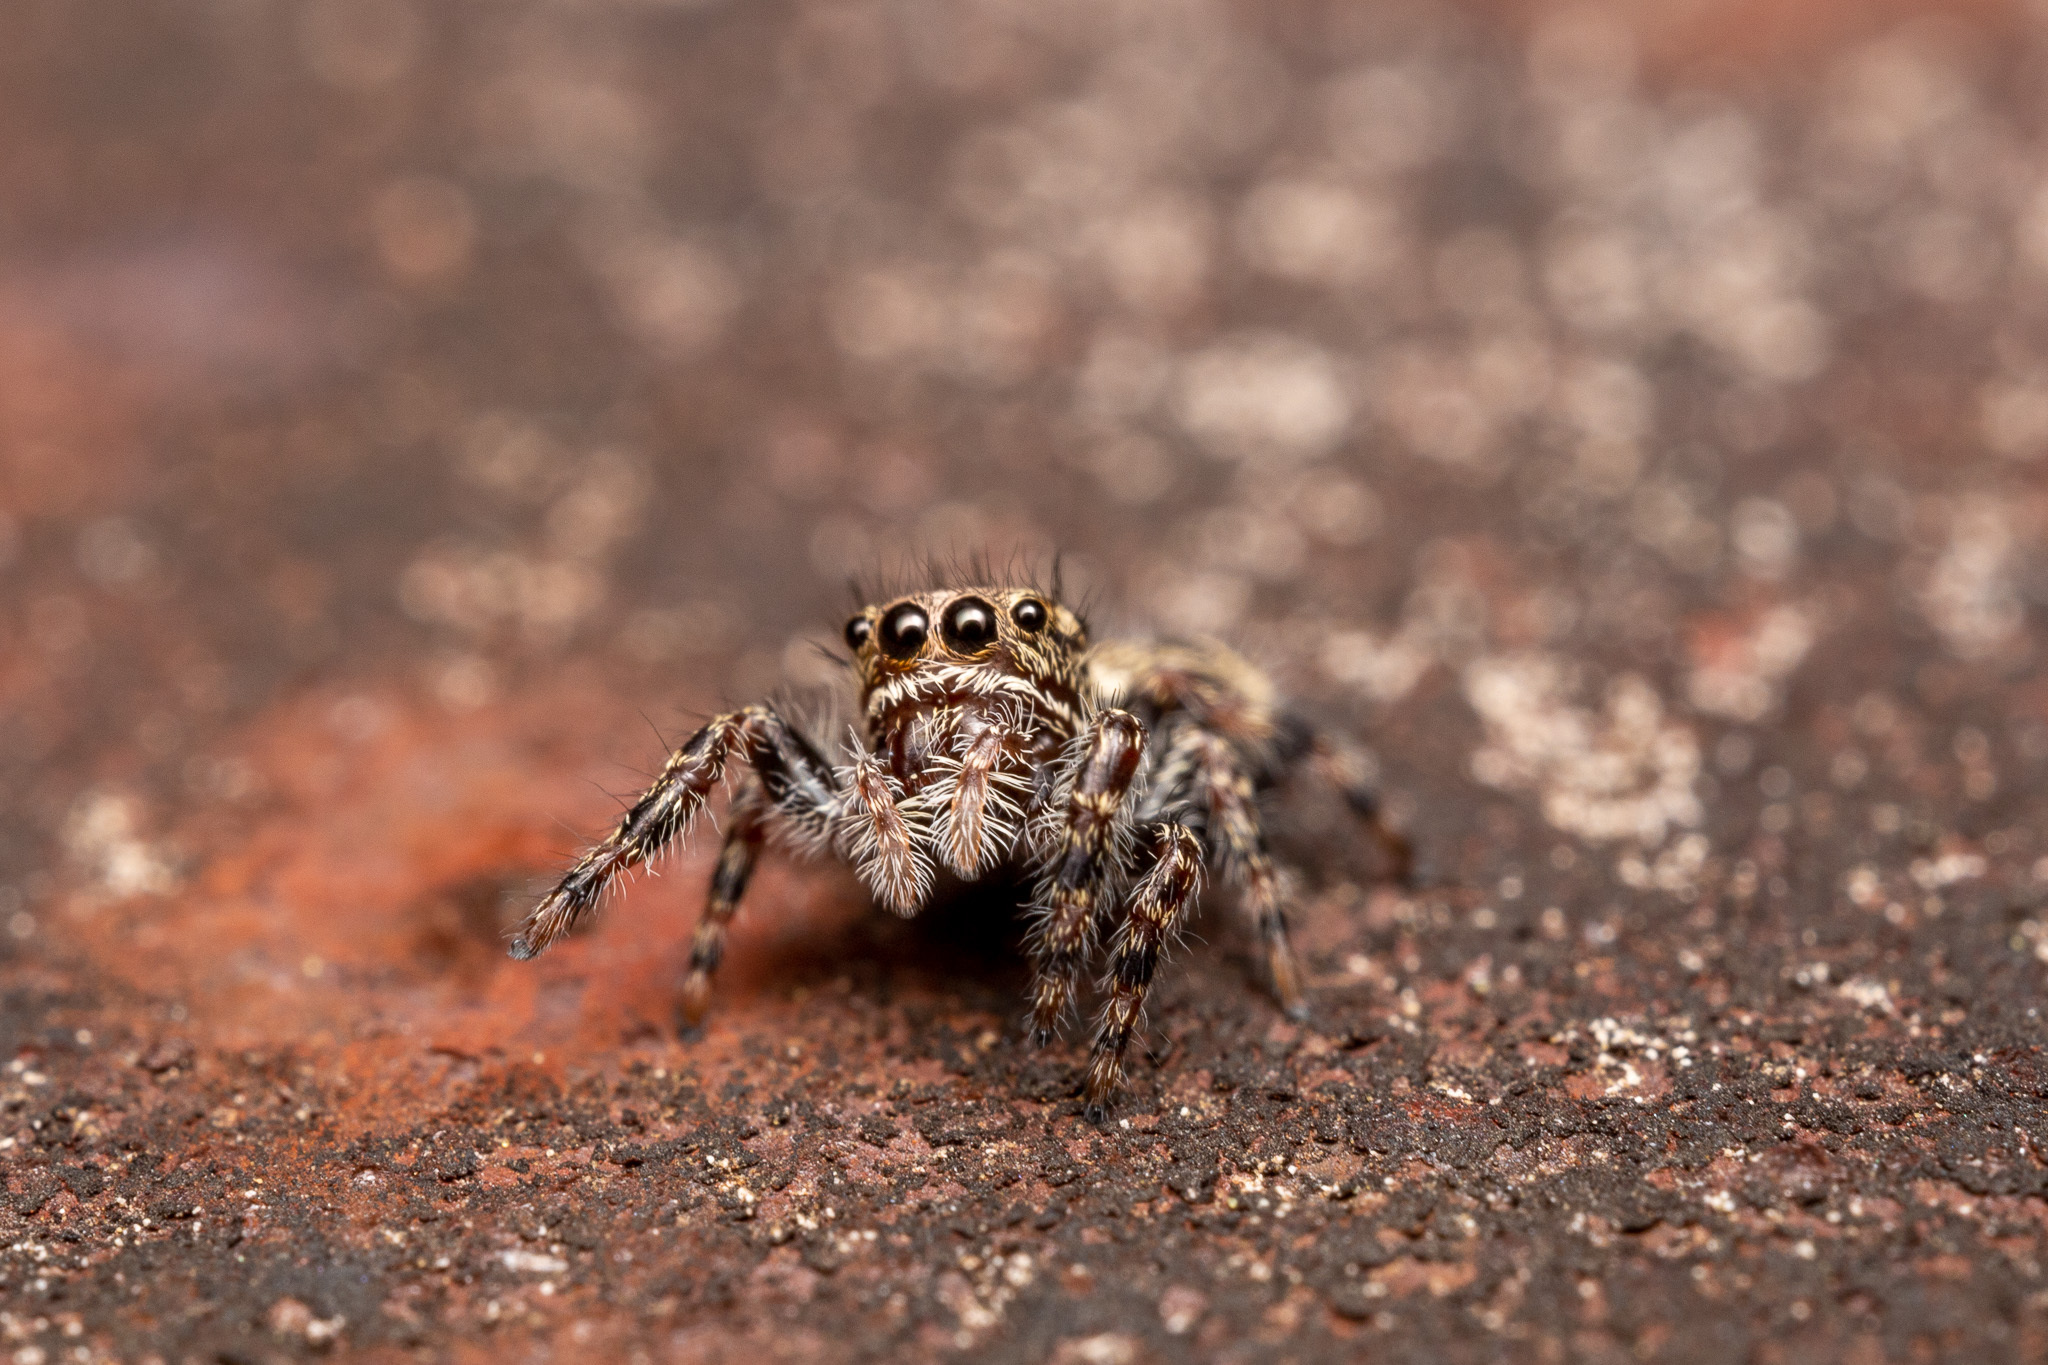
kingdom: Animalia
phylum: Arthropoda
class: Arachnida
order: Araneae
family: Salticidae
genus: Phidippus
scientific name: Phidippus putnami
